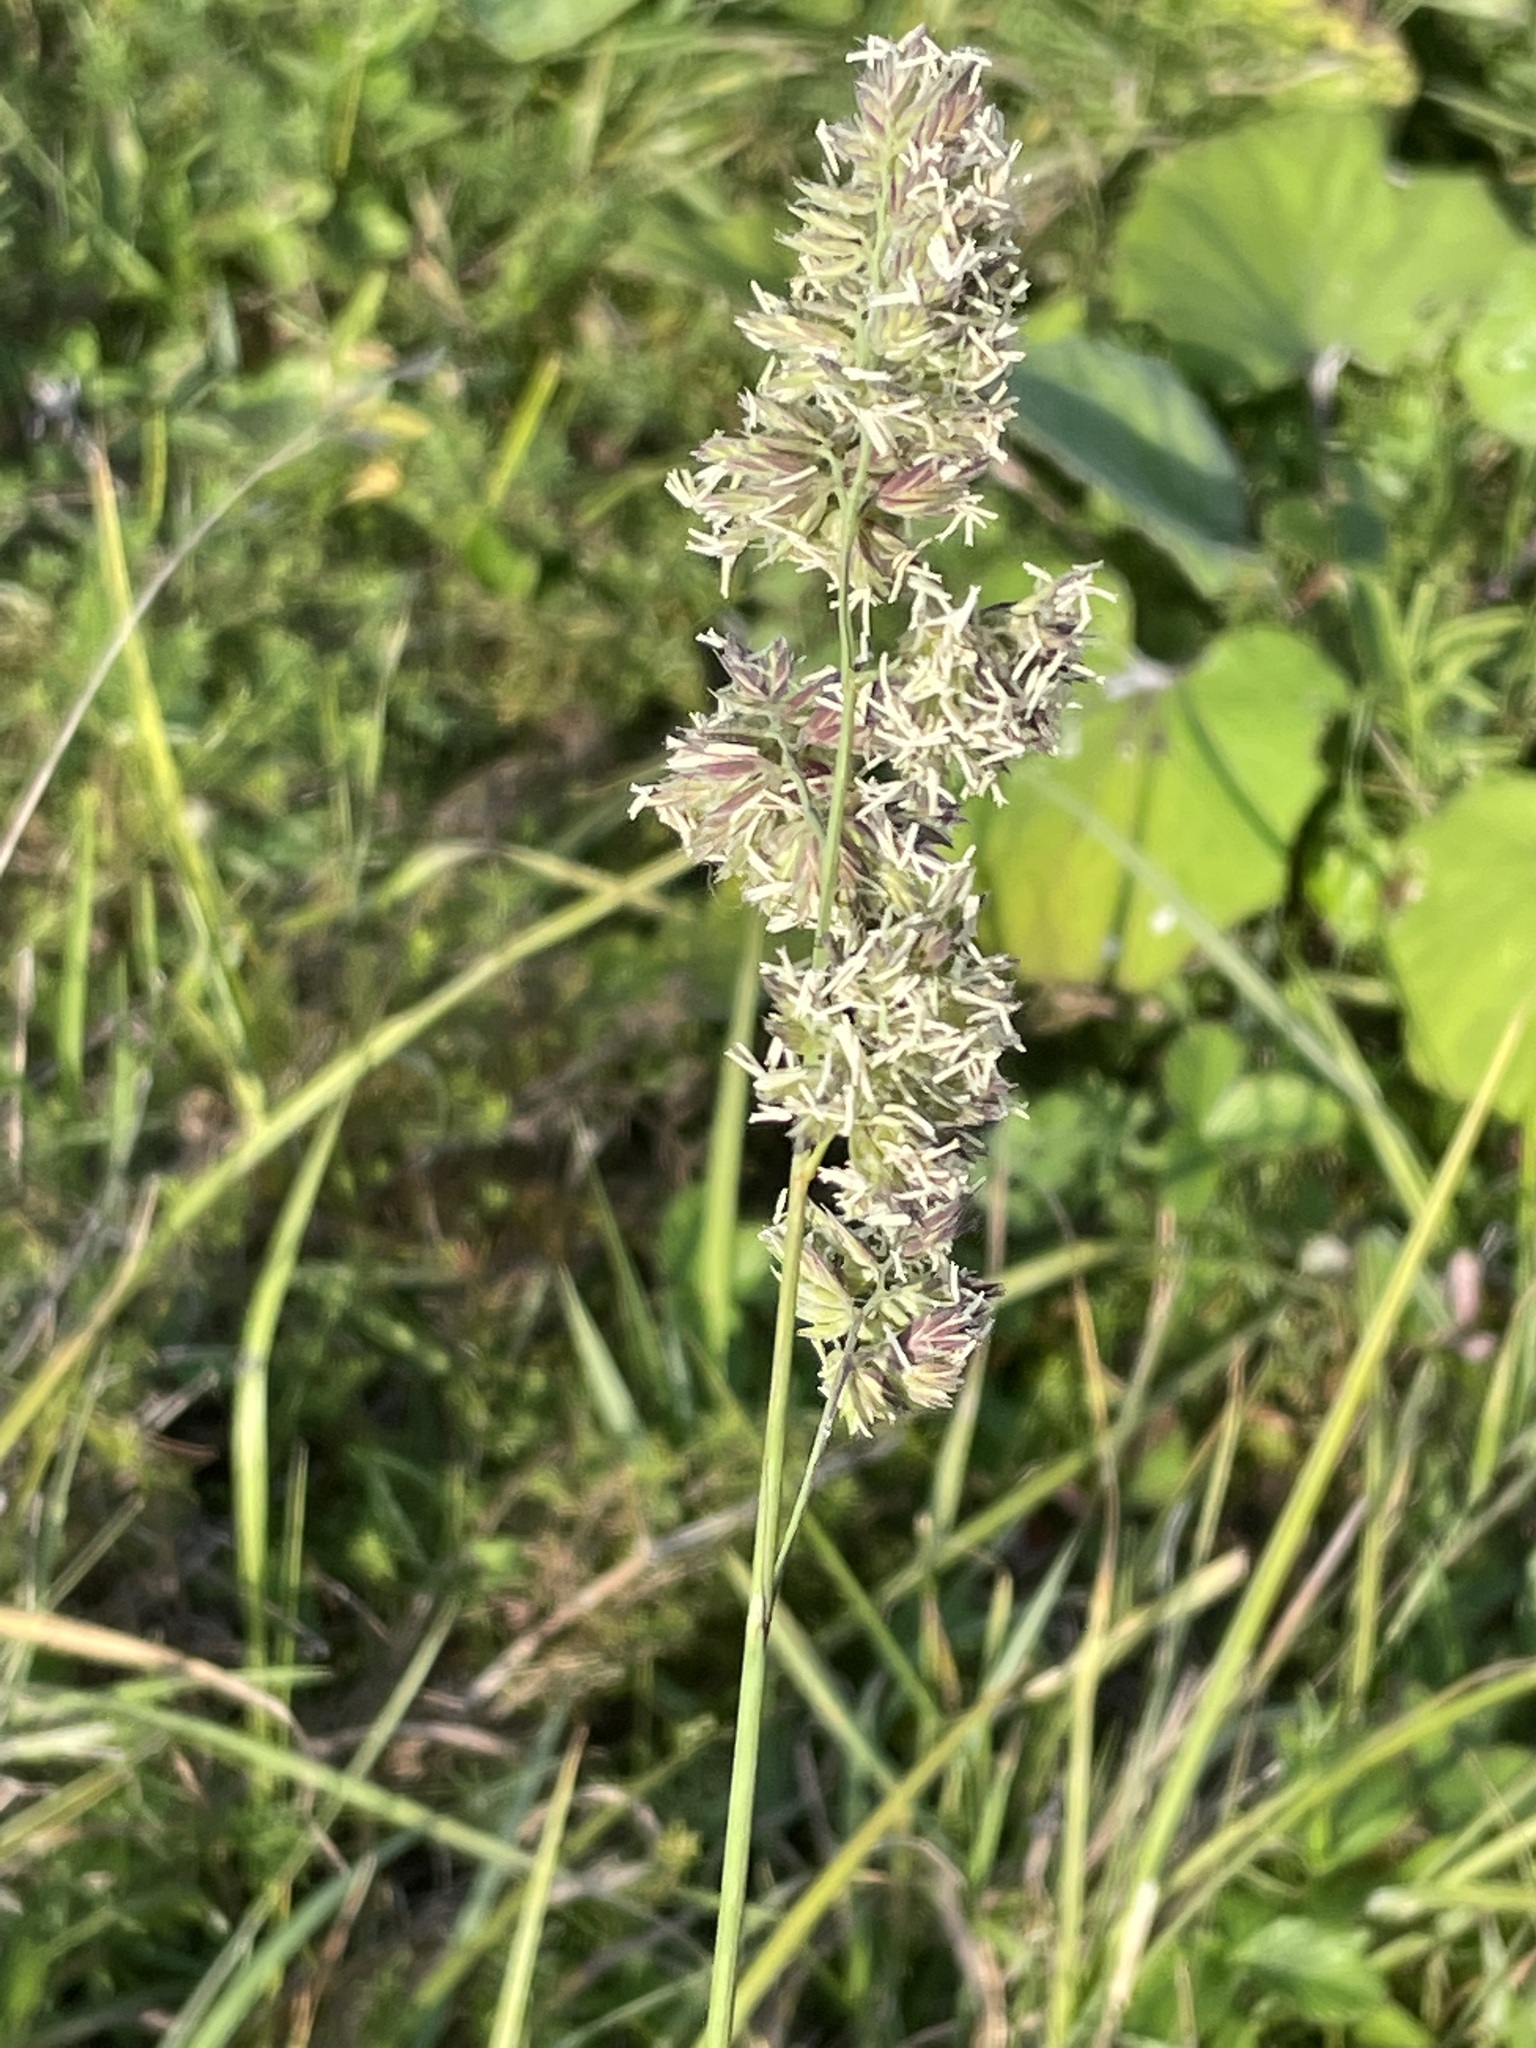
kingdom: Plantae
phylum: Tracheophyta
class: Liliopsida
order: Poales
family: Poaceae
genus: Dactylis
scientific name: Dactylis glomerata
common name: Orchardgrass
